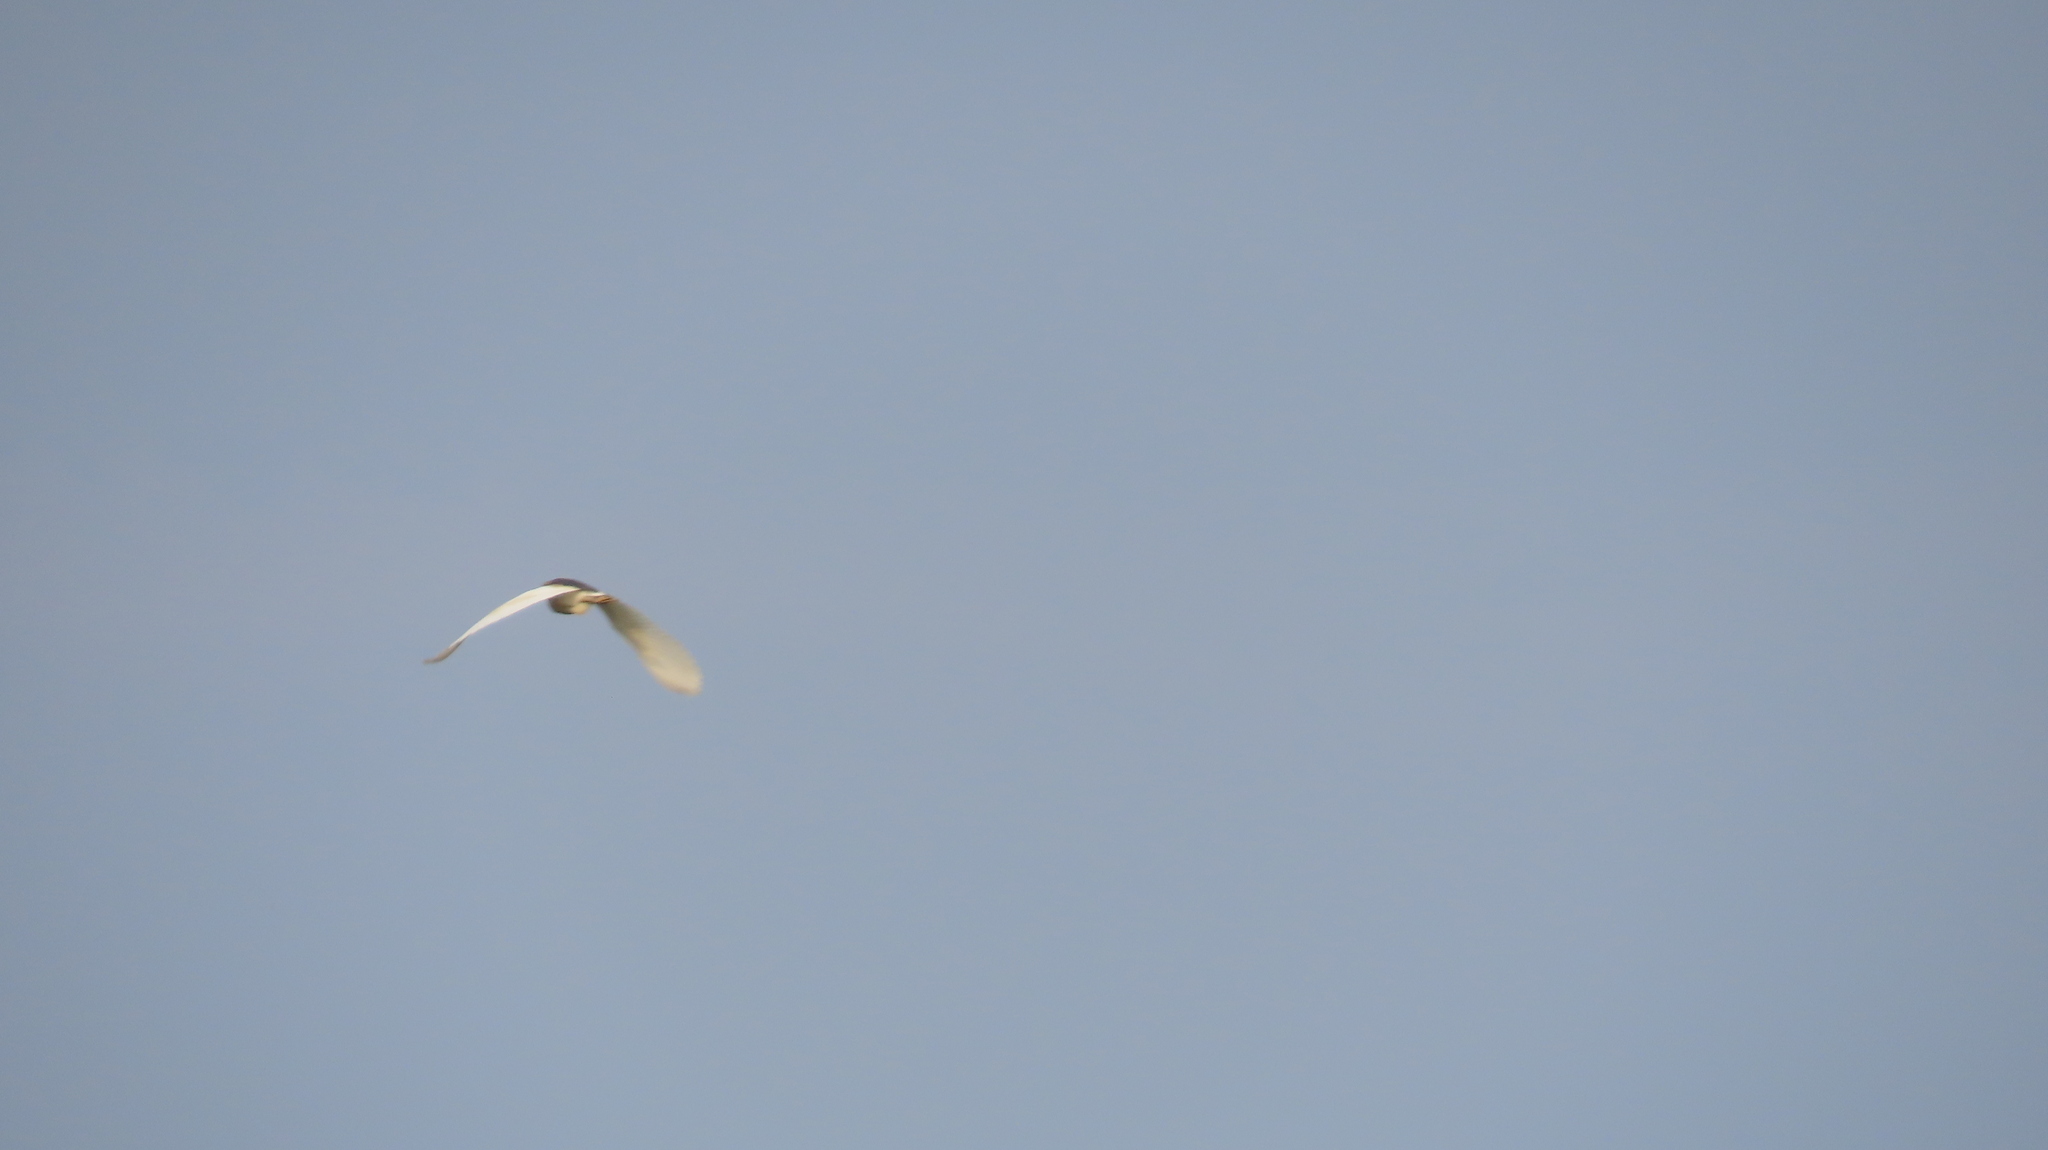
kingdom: Animalia
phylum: Chordata
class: Aves
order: Pelecaniformes
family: Ardeidae
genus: Ardeola
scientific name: Ardeola grayii
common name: Indian pond heron
